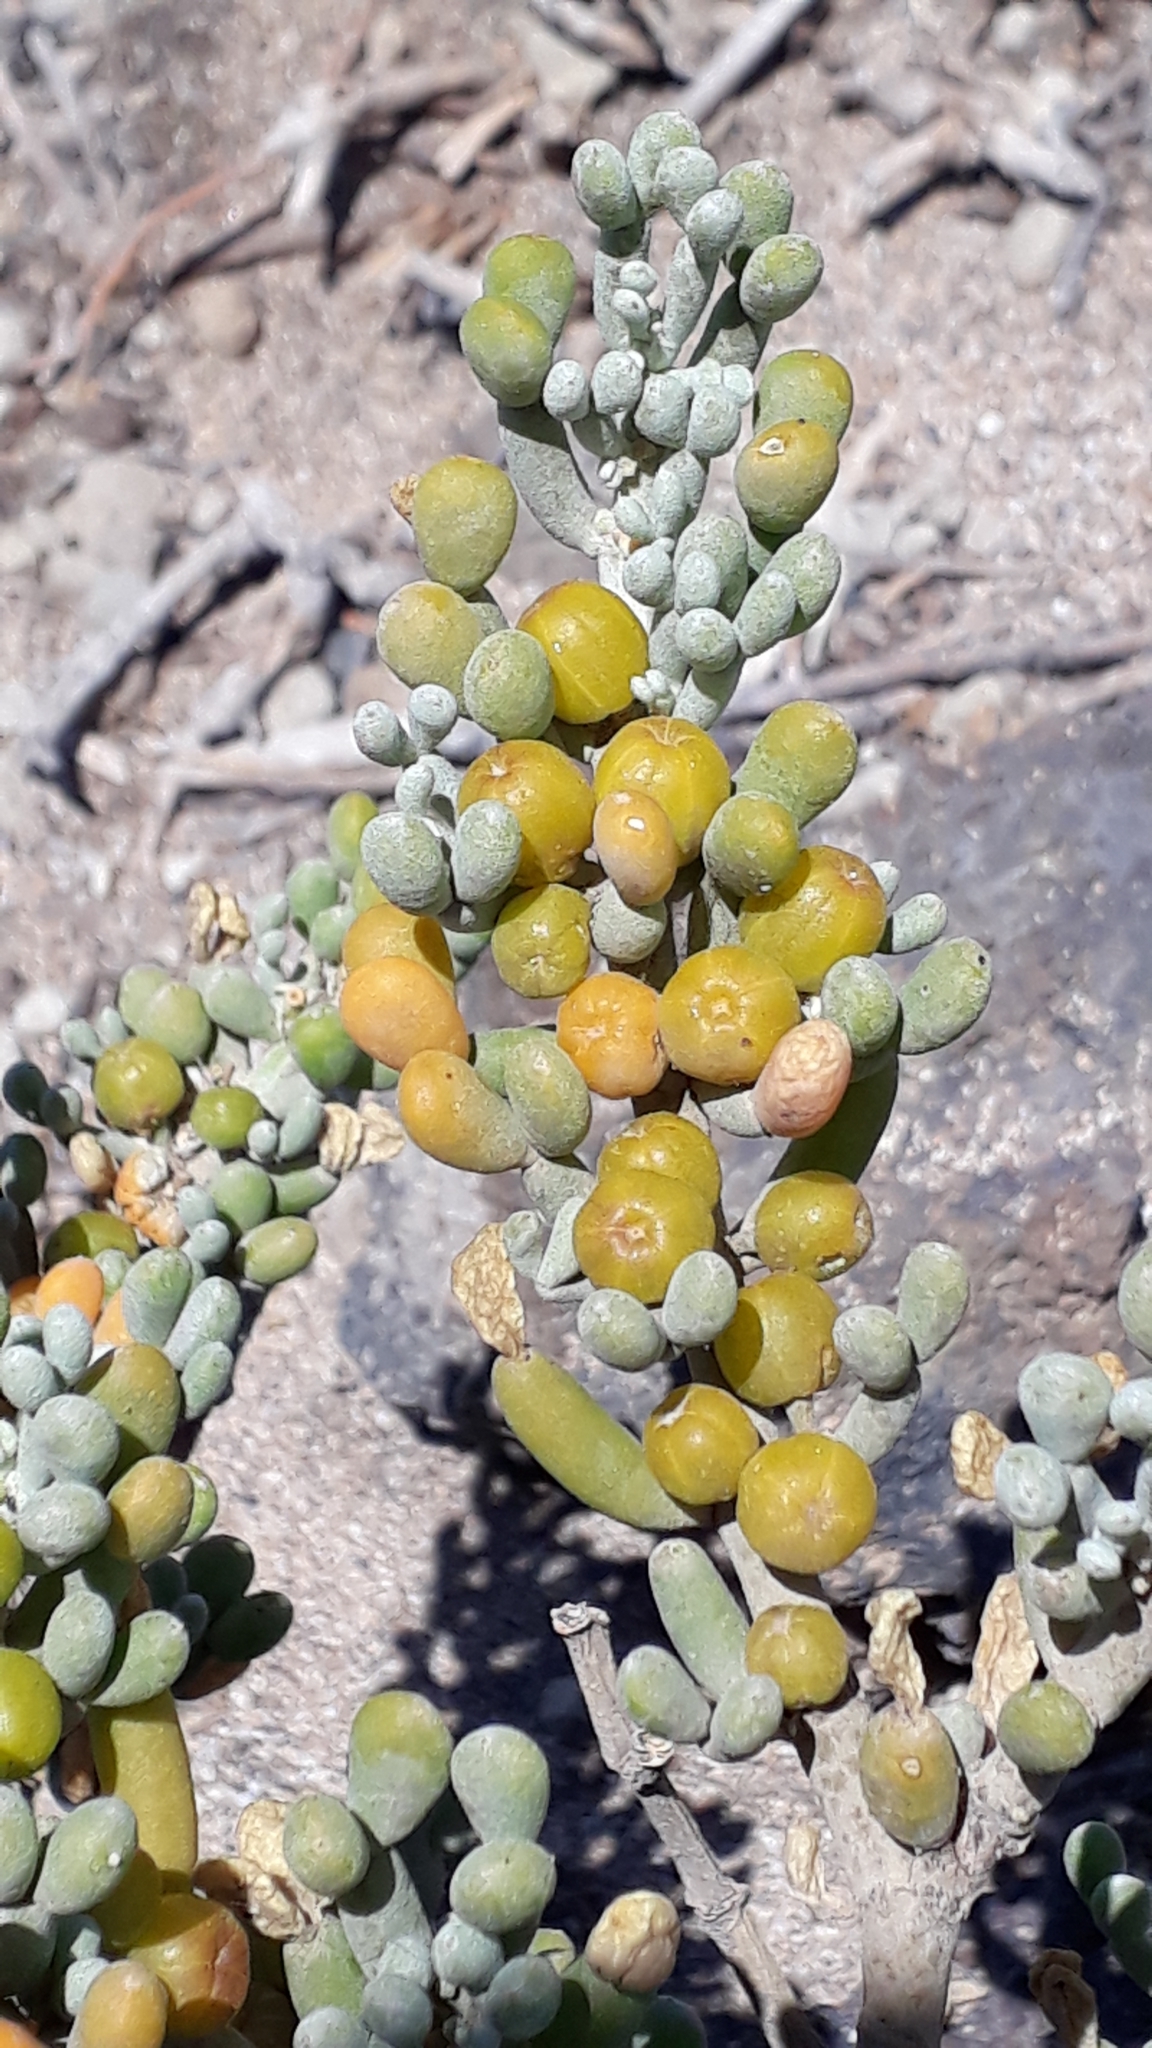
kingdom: Plantae
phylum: Tracheophyta
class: Magnoliopsida
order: Zygophyllales
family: Zygophyllaceae
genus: Tetraena
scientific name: Tetraena fontanesii
